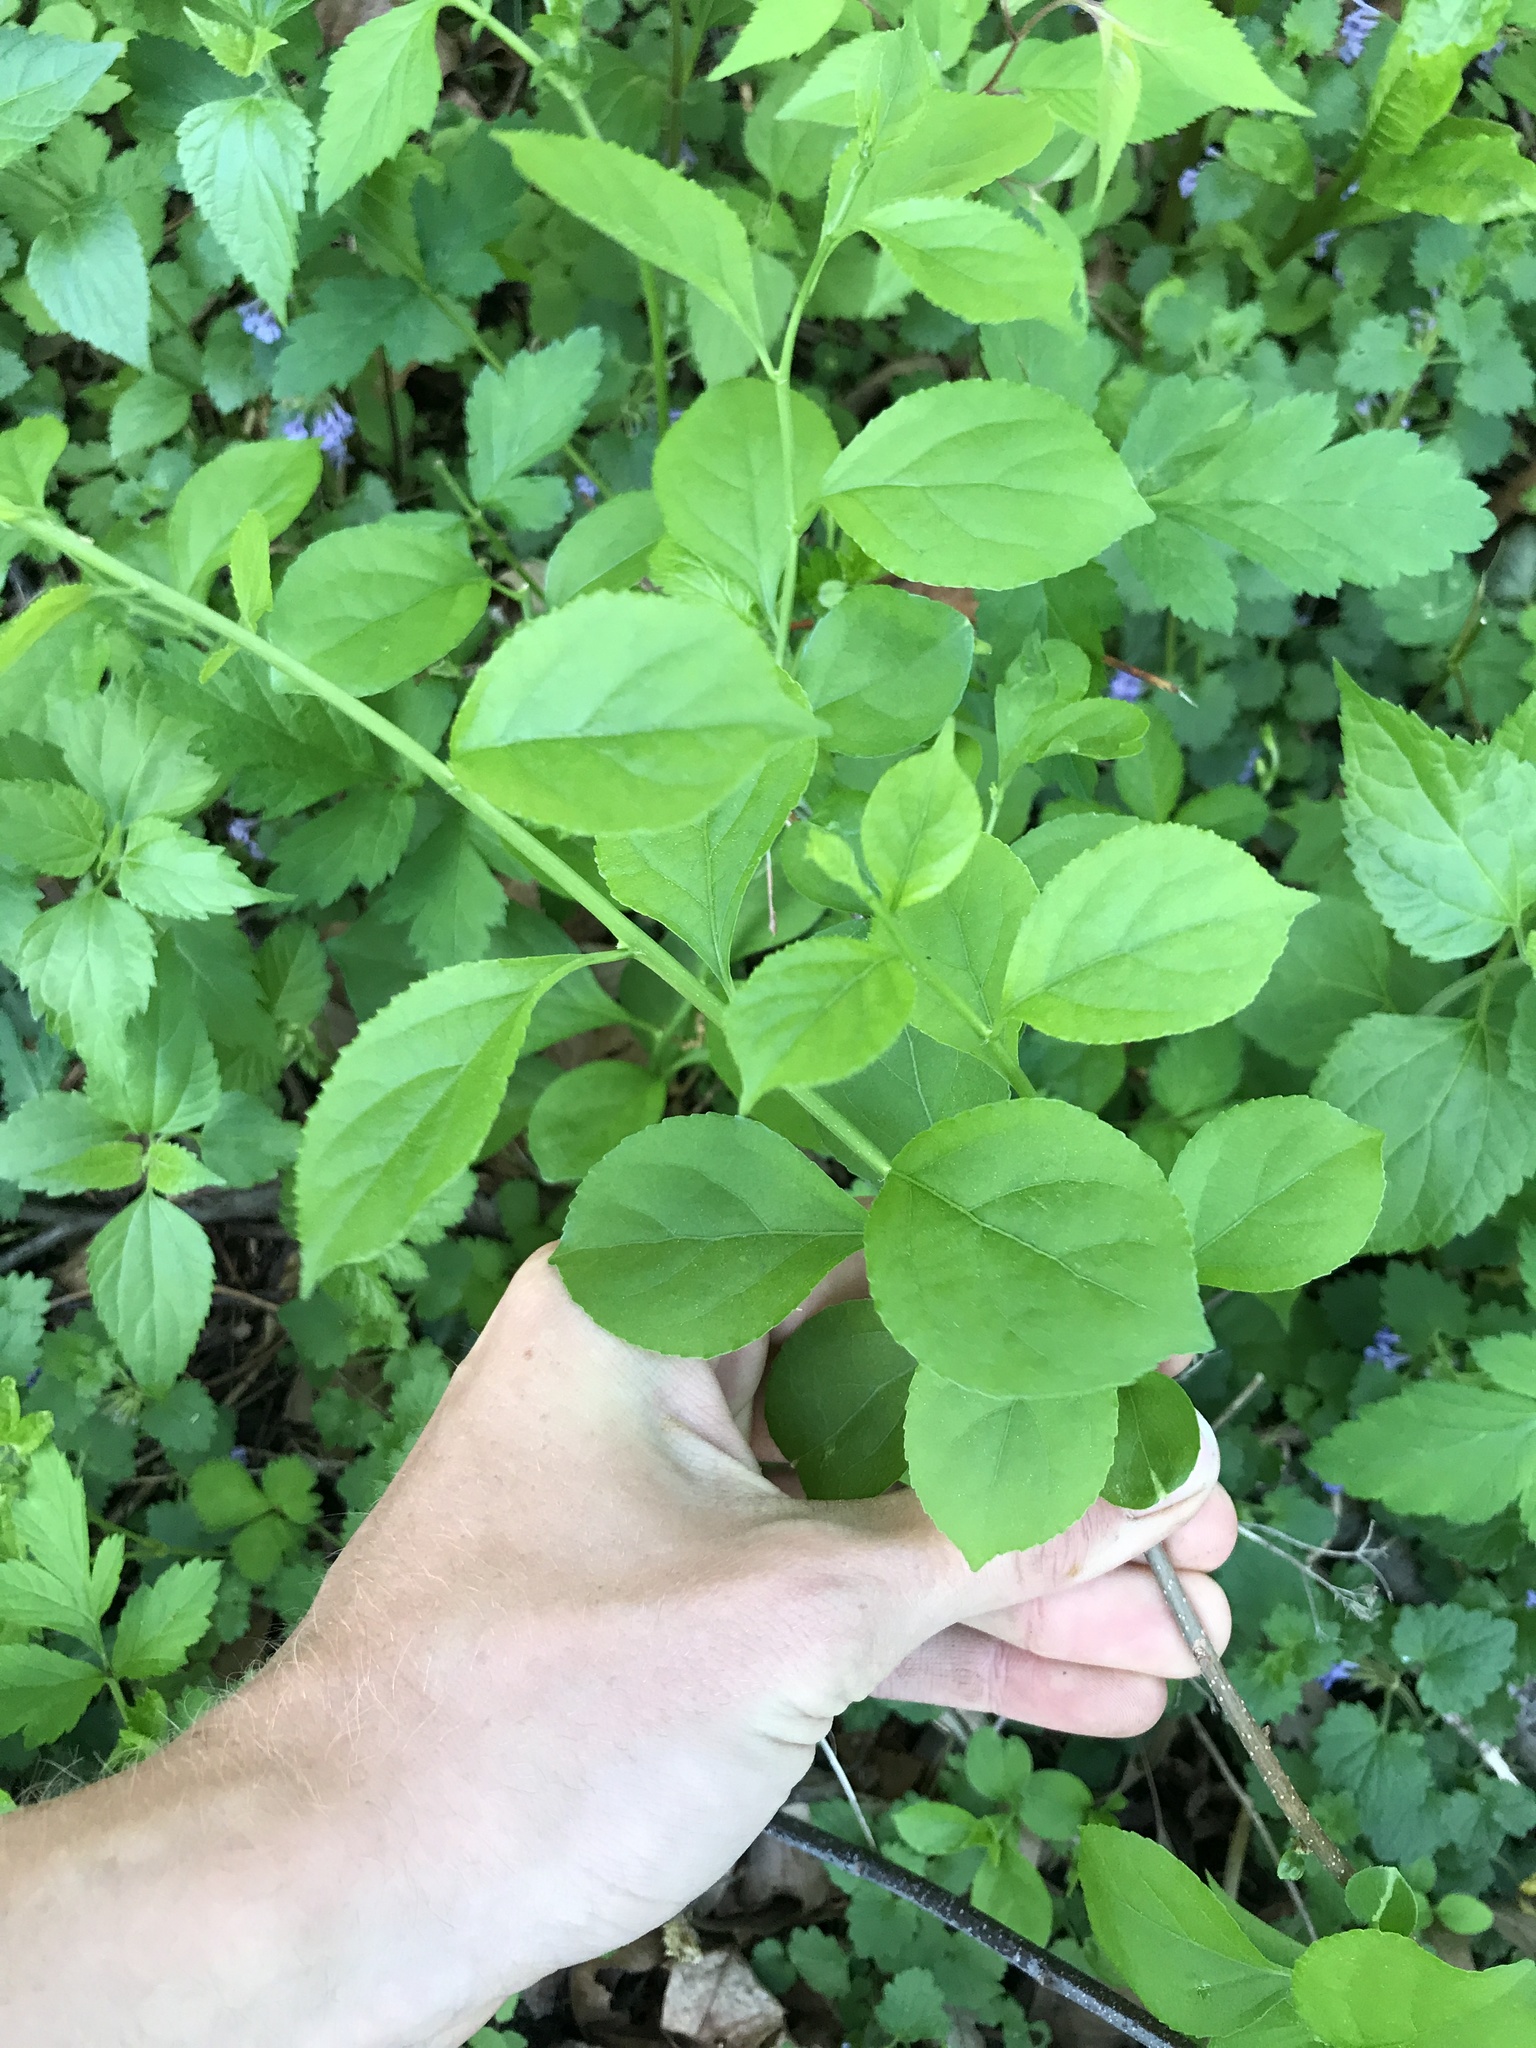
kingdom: Plantae
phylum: Tracheophyta
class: Magnoliopsida
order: Celastrales
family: Celastraceae
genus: Celastrus
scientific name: Celastrus orbiculatus
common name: Oriental bittersweet
